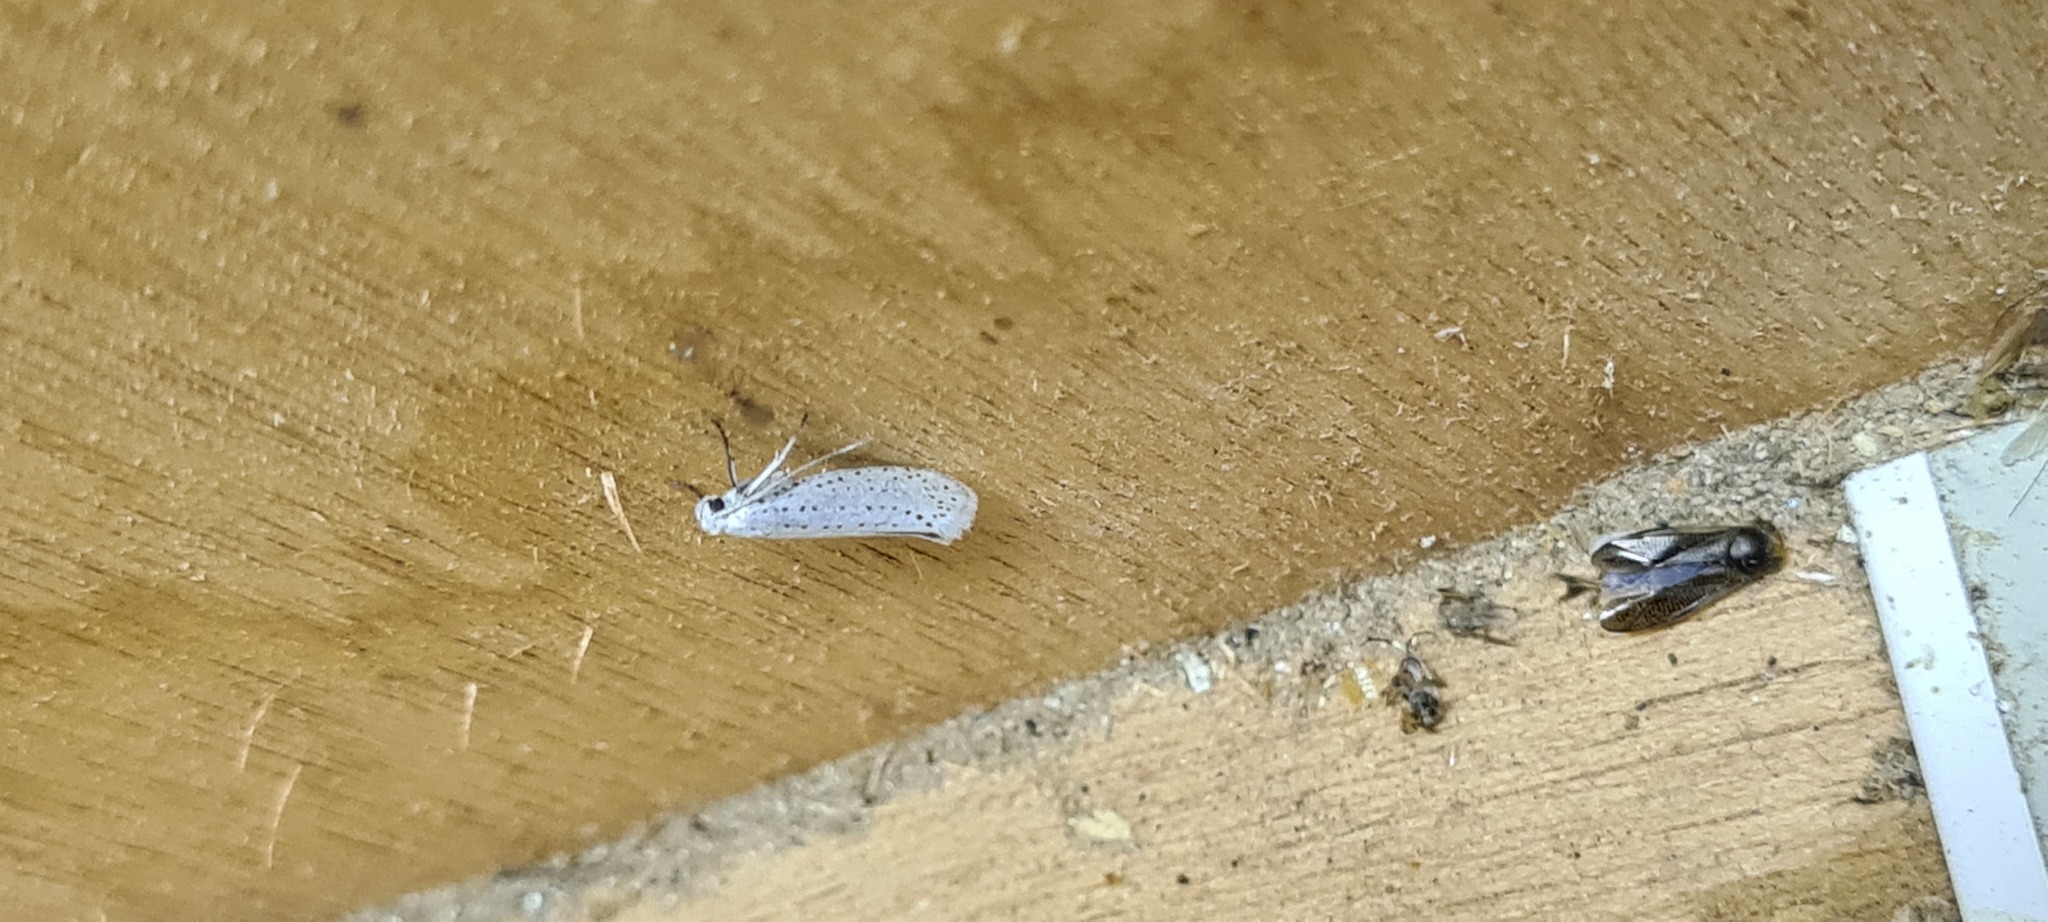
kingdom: Animalia
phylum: Arthropoda
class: Insecta
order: Lepidoptera
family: Yponomeutidae
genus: Yponomeuta
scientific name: Yponomeuta evonymella
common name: Bird-cherry ermine
